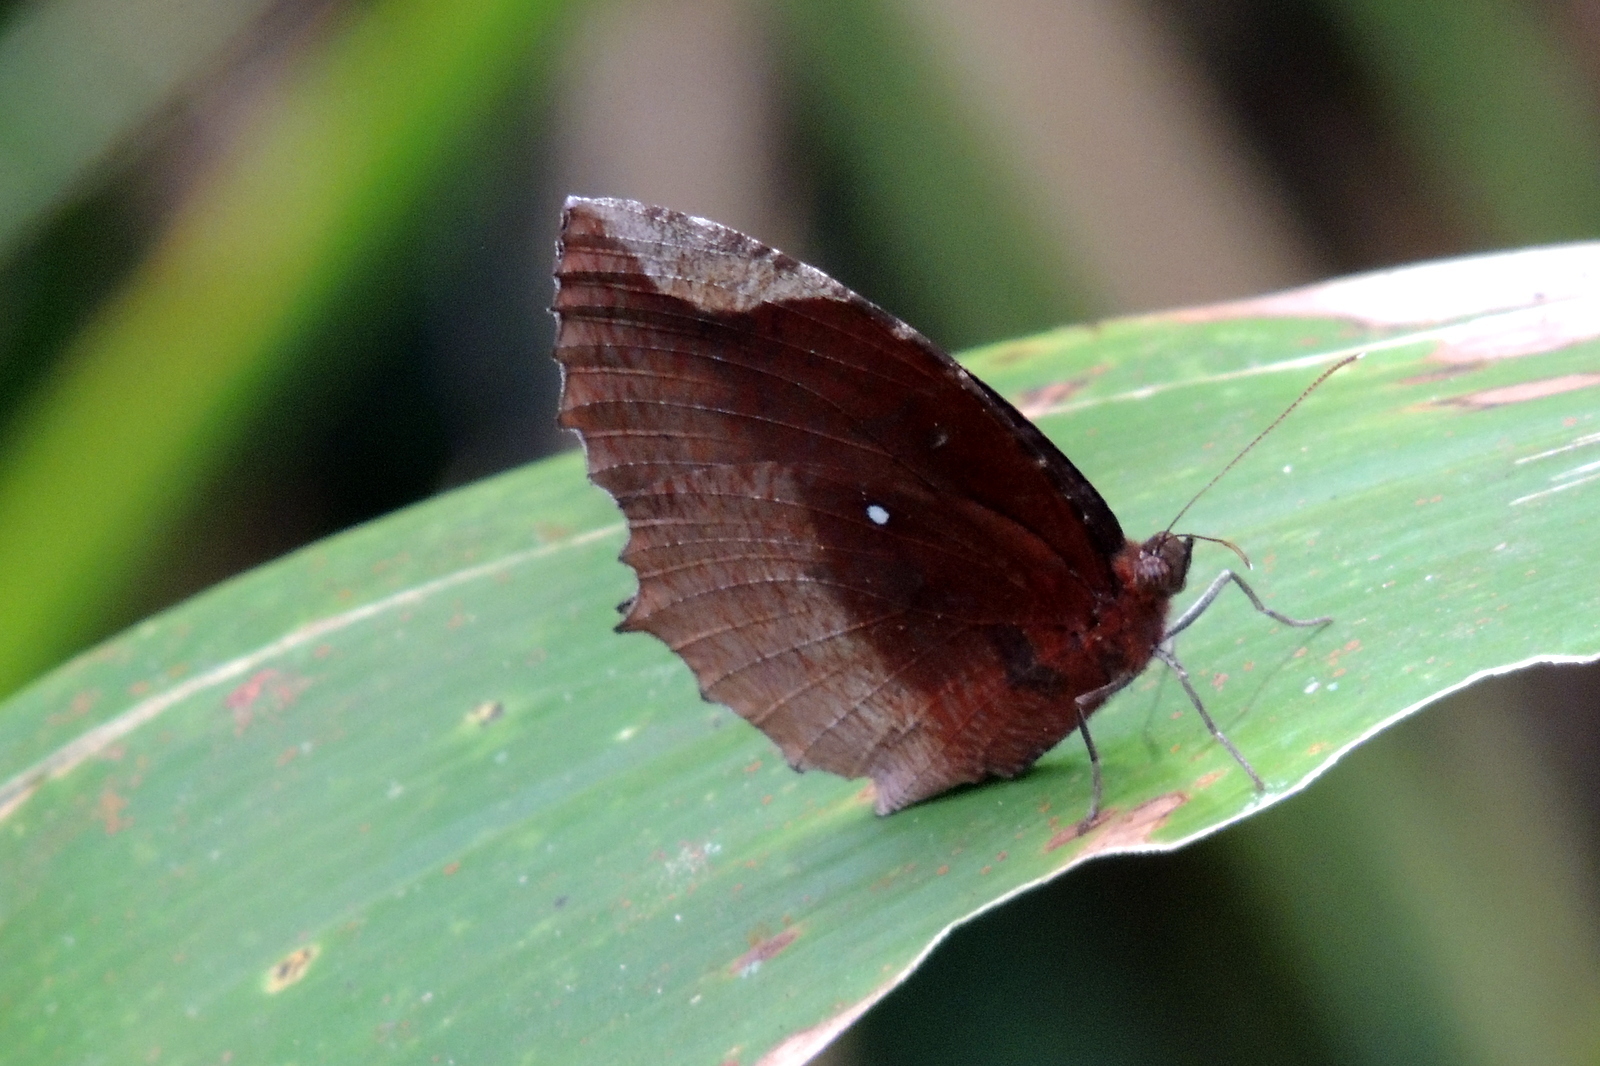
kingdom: Animalia
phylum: Arthropoda
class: Insecta
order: Lepidoptera
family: Nymphalidae
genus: Elymnias
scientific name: Elymnias hypermnestra
